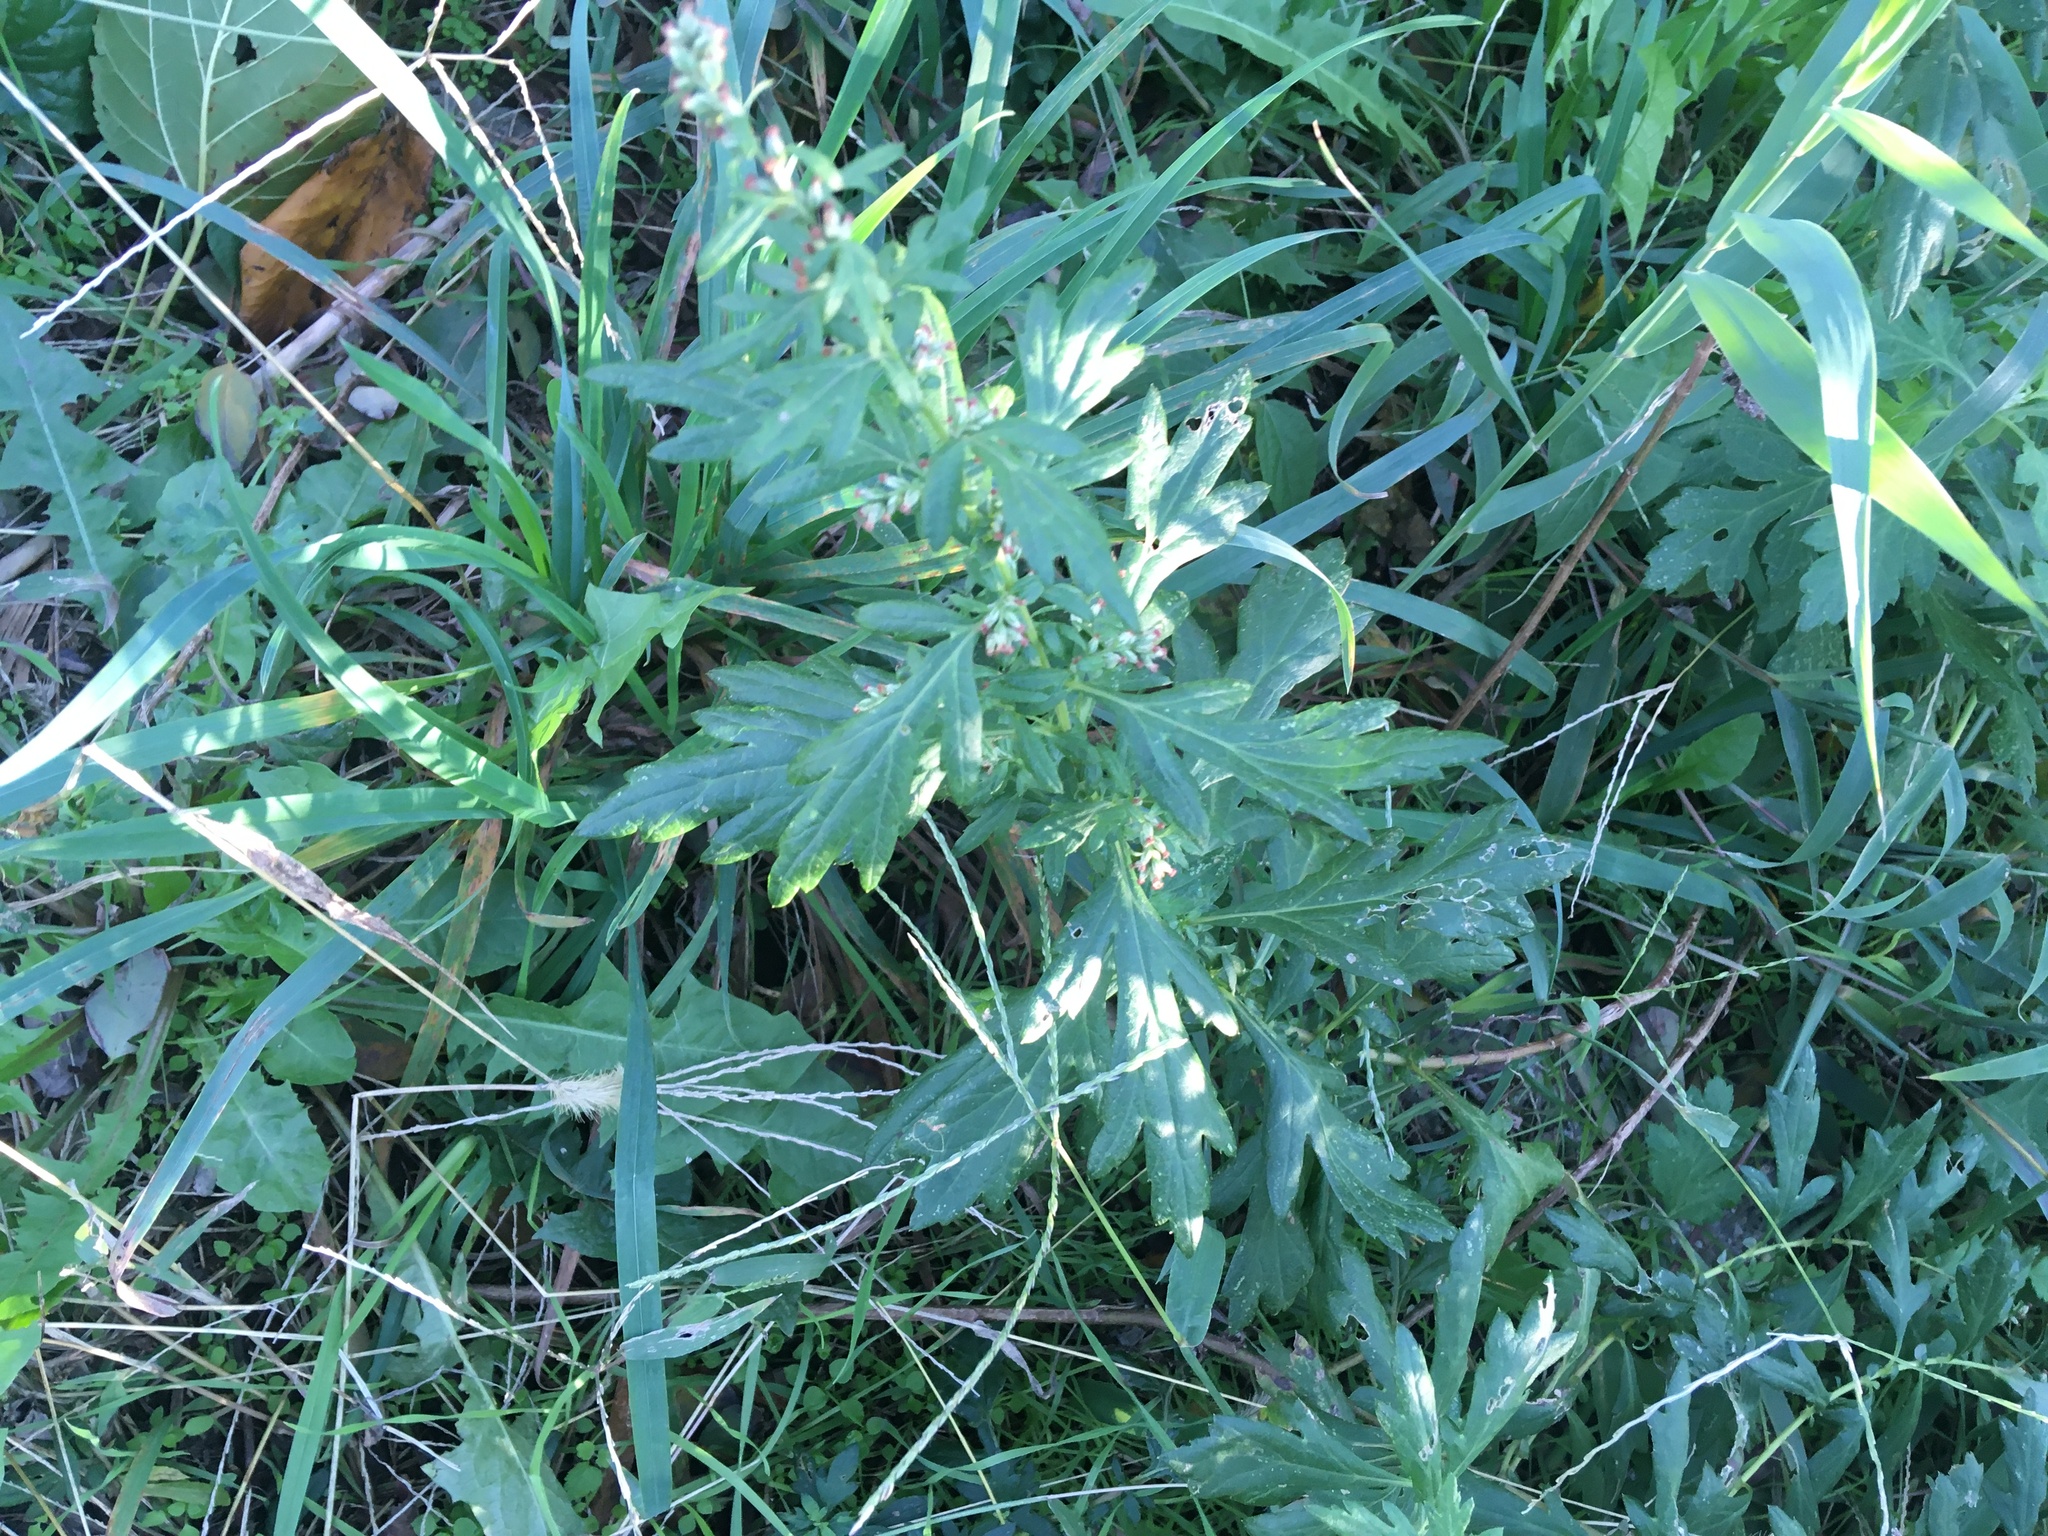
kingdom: Plantae
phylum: Tracheophyta
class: Magnoliopsida
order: Asterales
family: Asteraceae
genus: Artemisia
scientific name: Artemisia vulgaris
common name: Mugwort
